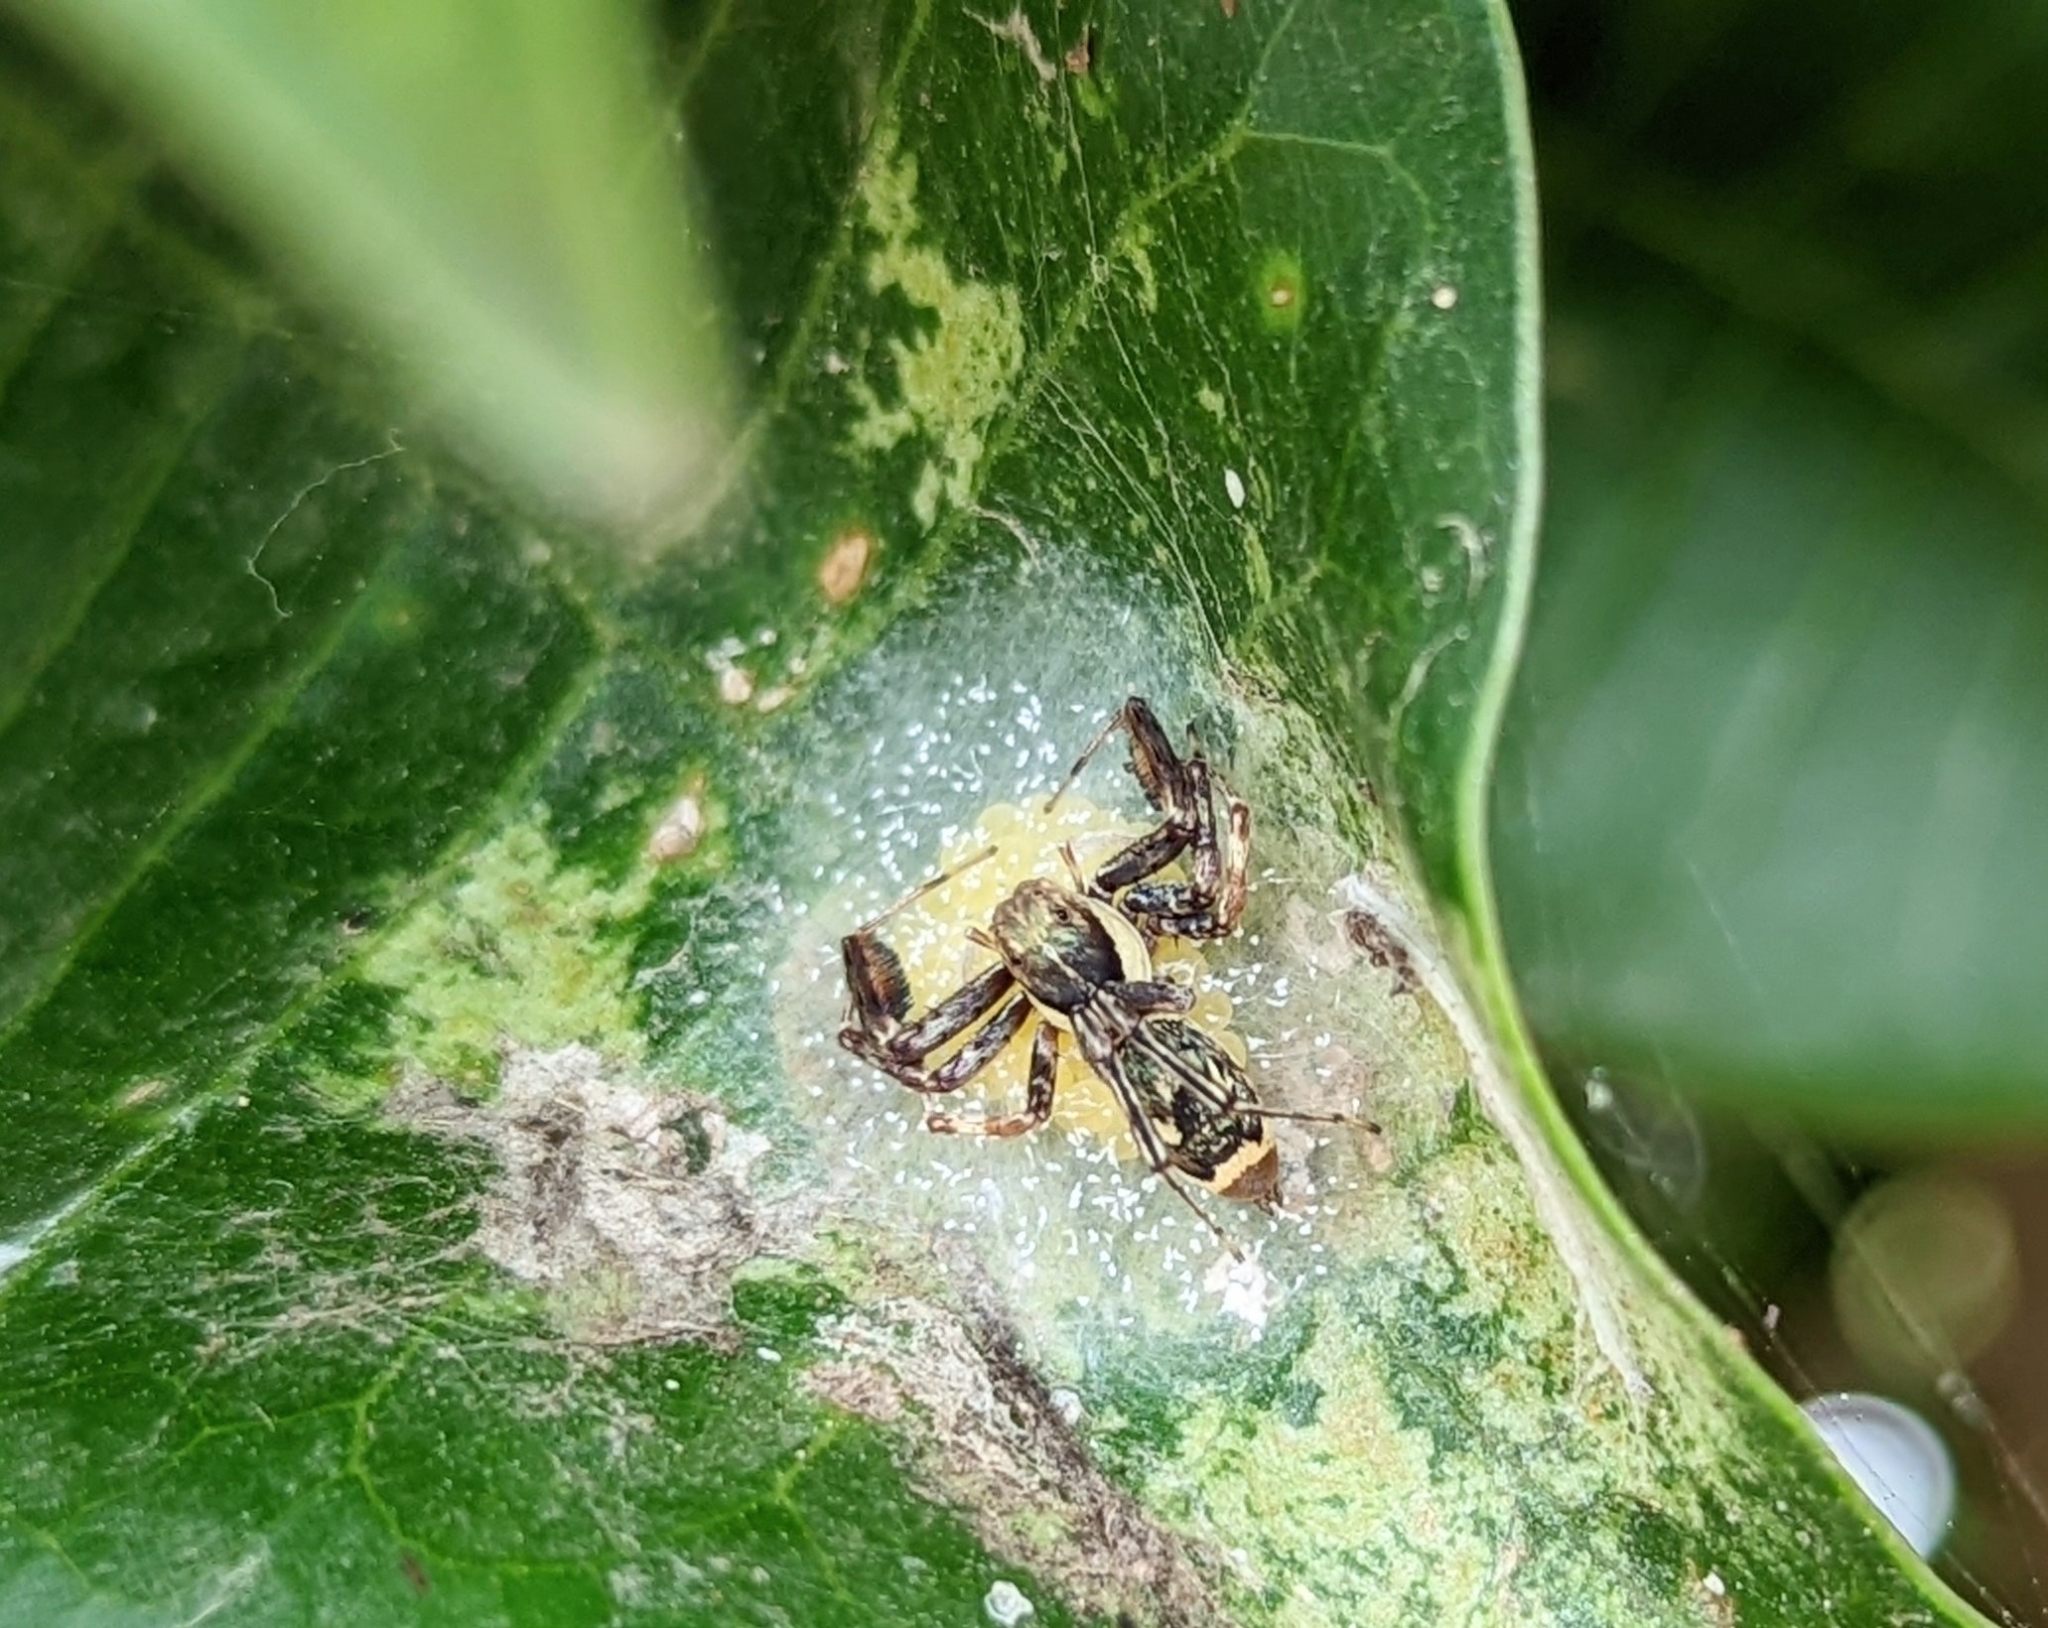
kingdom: Animalia
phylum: Arthropoda
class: Arachnida
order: Araneae
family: Salticidae
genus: Brettus
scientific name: Brettus cingulatus
